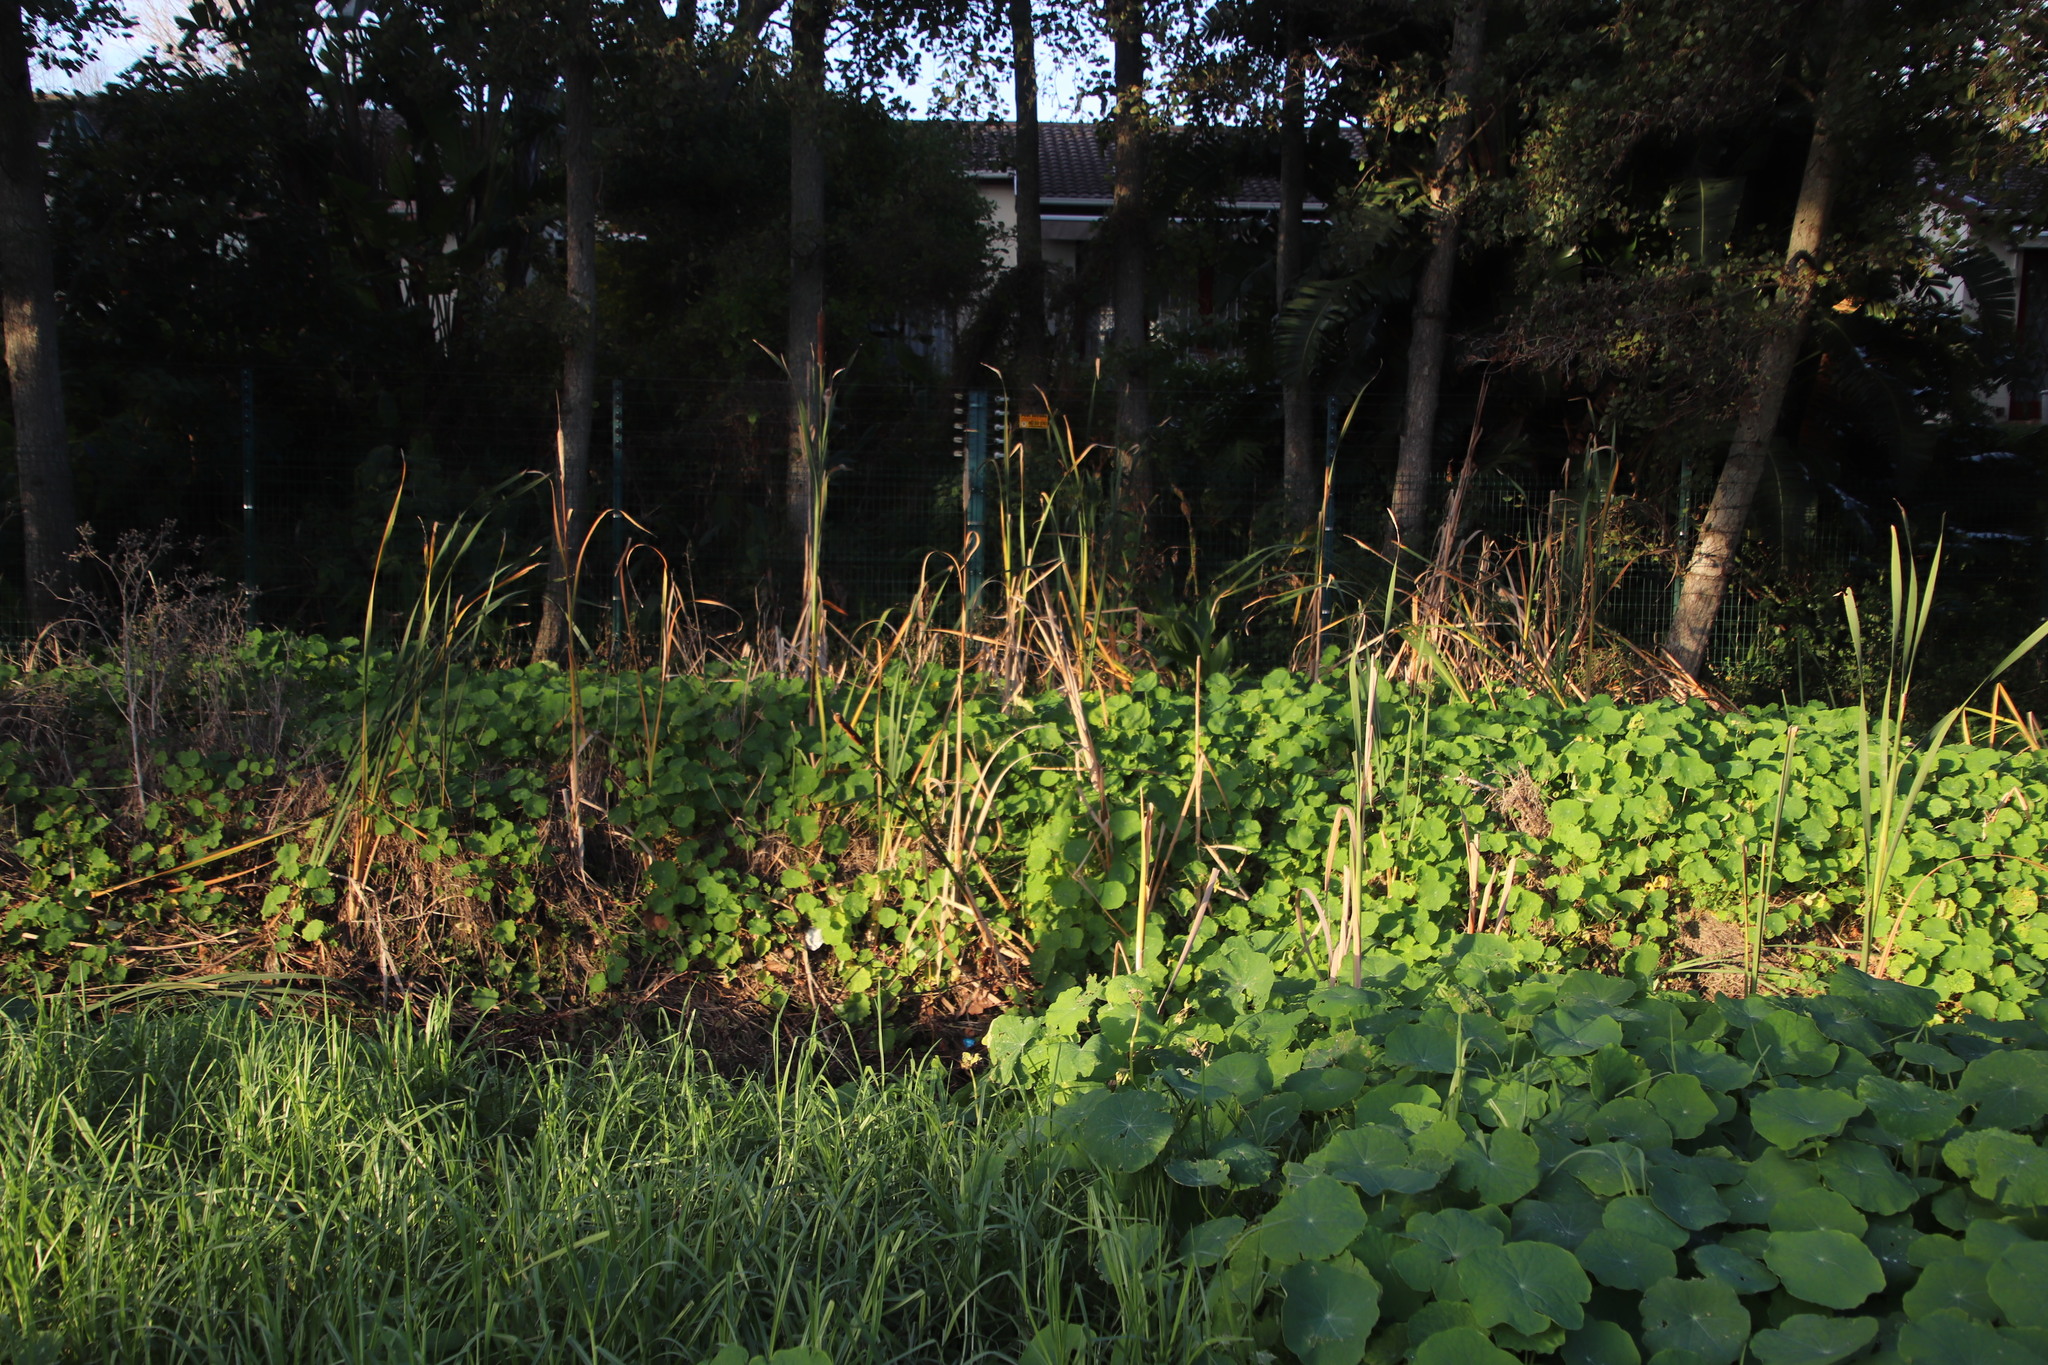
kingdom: Plantae
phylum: Tracheophyta
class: Liliopsida
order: Poales
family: Typhaceae
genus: Typha
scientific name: Typha capensis
